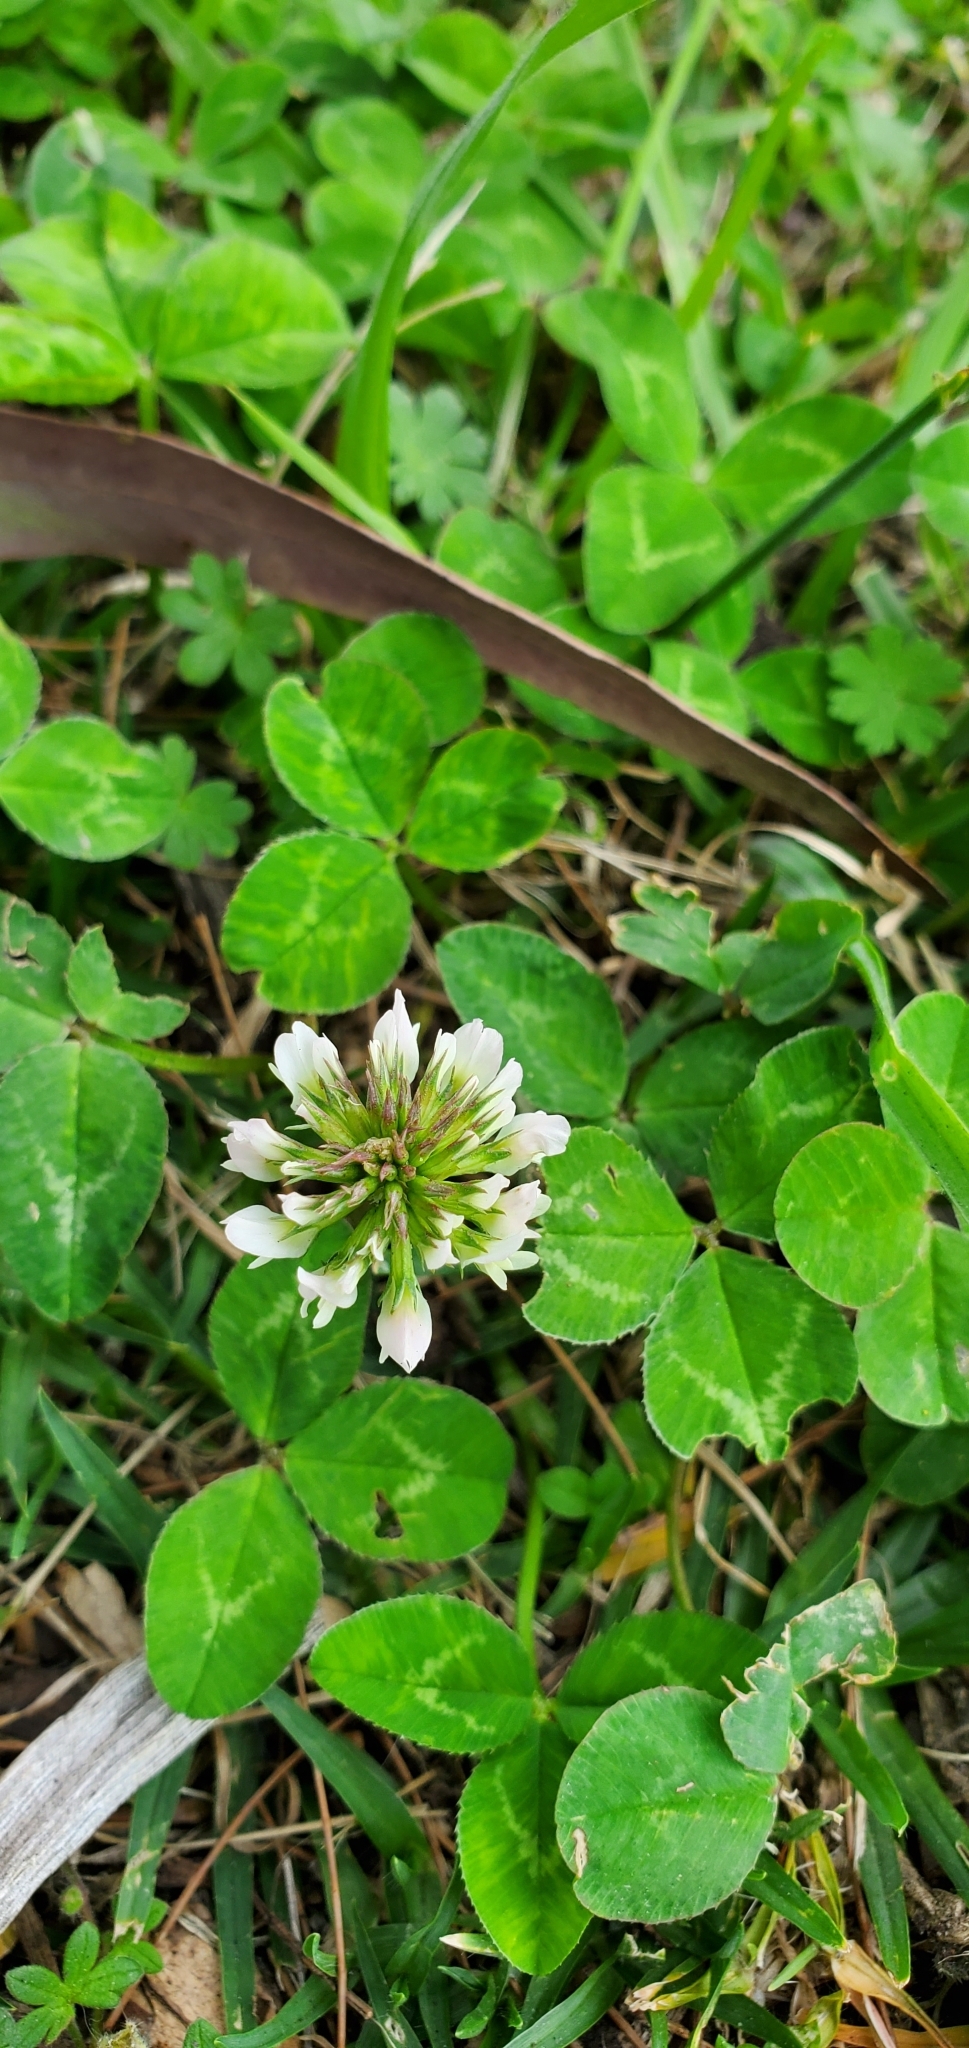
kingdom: Plantae
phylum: Tracheophyta
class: Magnoliopsida
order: Fabales
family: Fabaceae
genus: Trifolium
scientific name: Trifolium repens
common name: White clover
